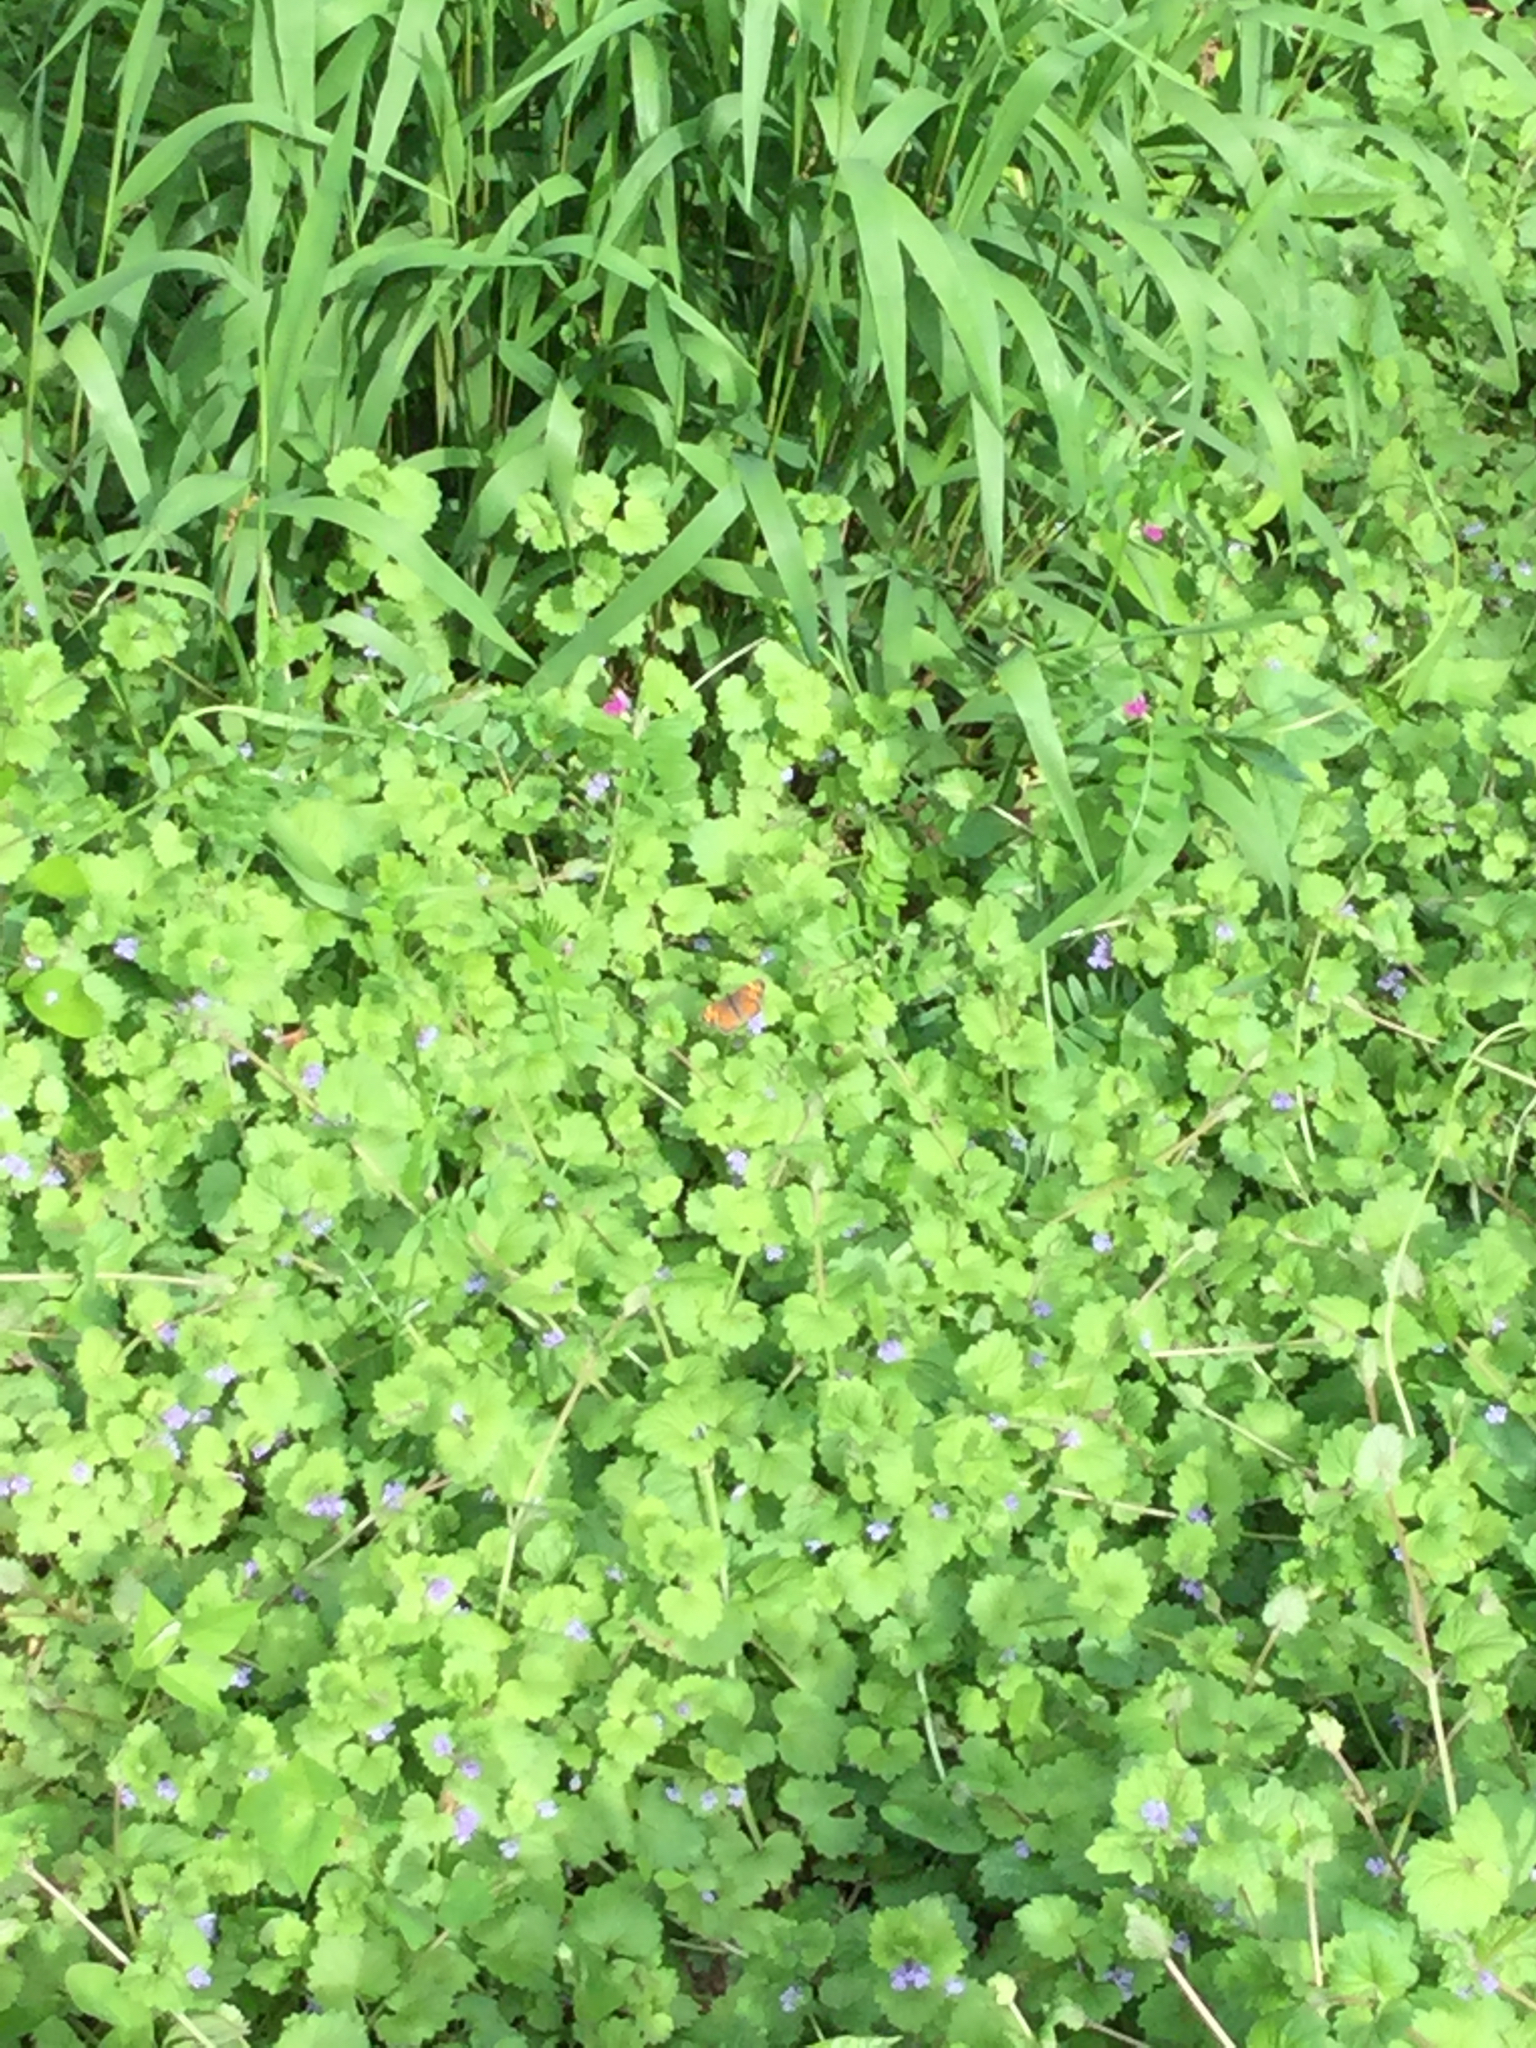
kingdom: Animalia
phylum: Arthropoda
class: Insecta
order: Lepidoptera
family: Nymphalidae
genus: Phyciodes
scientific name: Phyciodes tharos
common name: Pearl crescent
